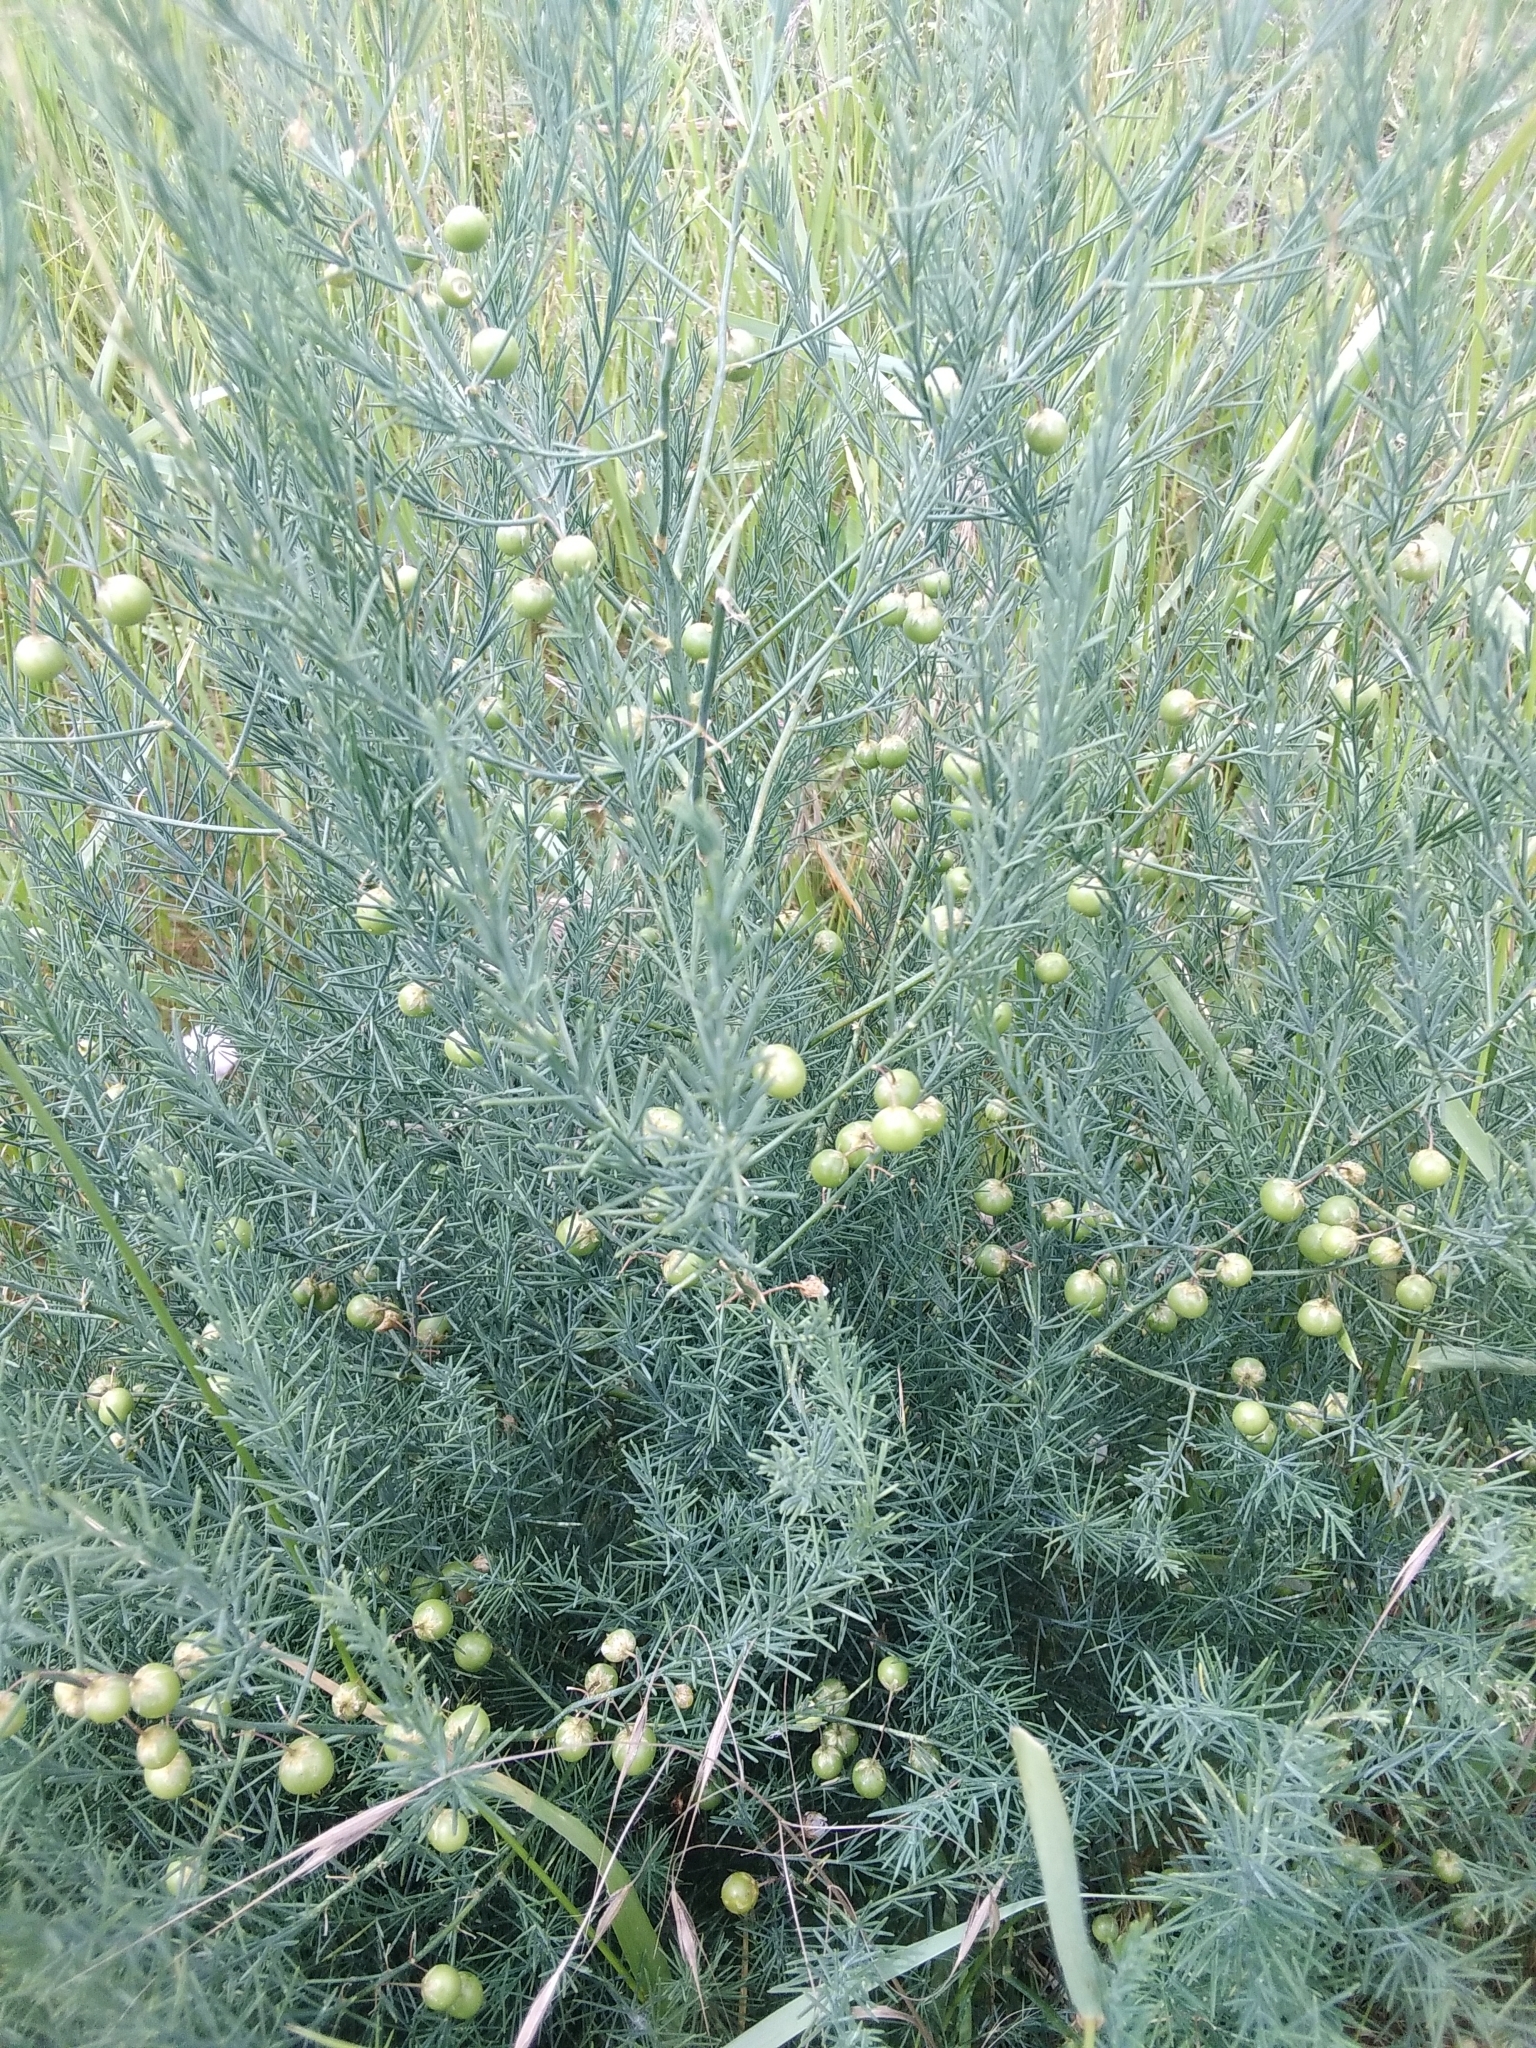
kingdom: Plantae
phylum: Tracheophyta
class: Liliopsida
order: Asparagales
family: Asparagaceae
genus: Asparagus
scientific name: Asparagus officinalis
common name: Garden asparagus
